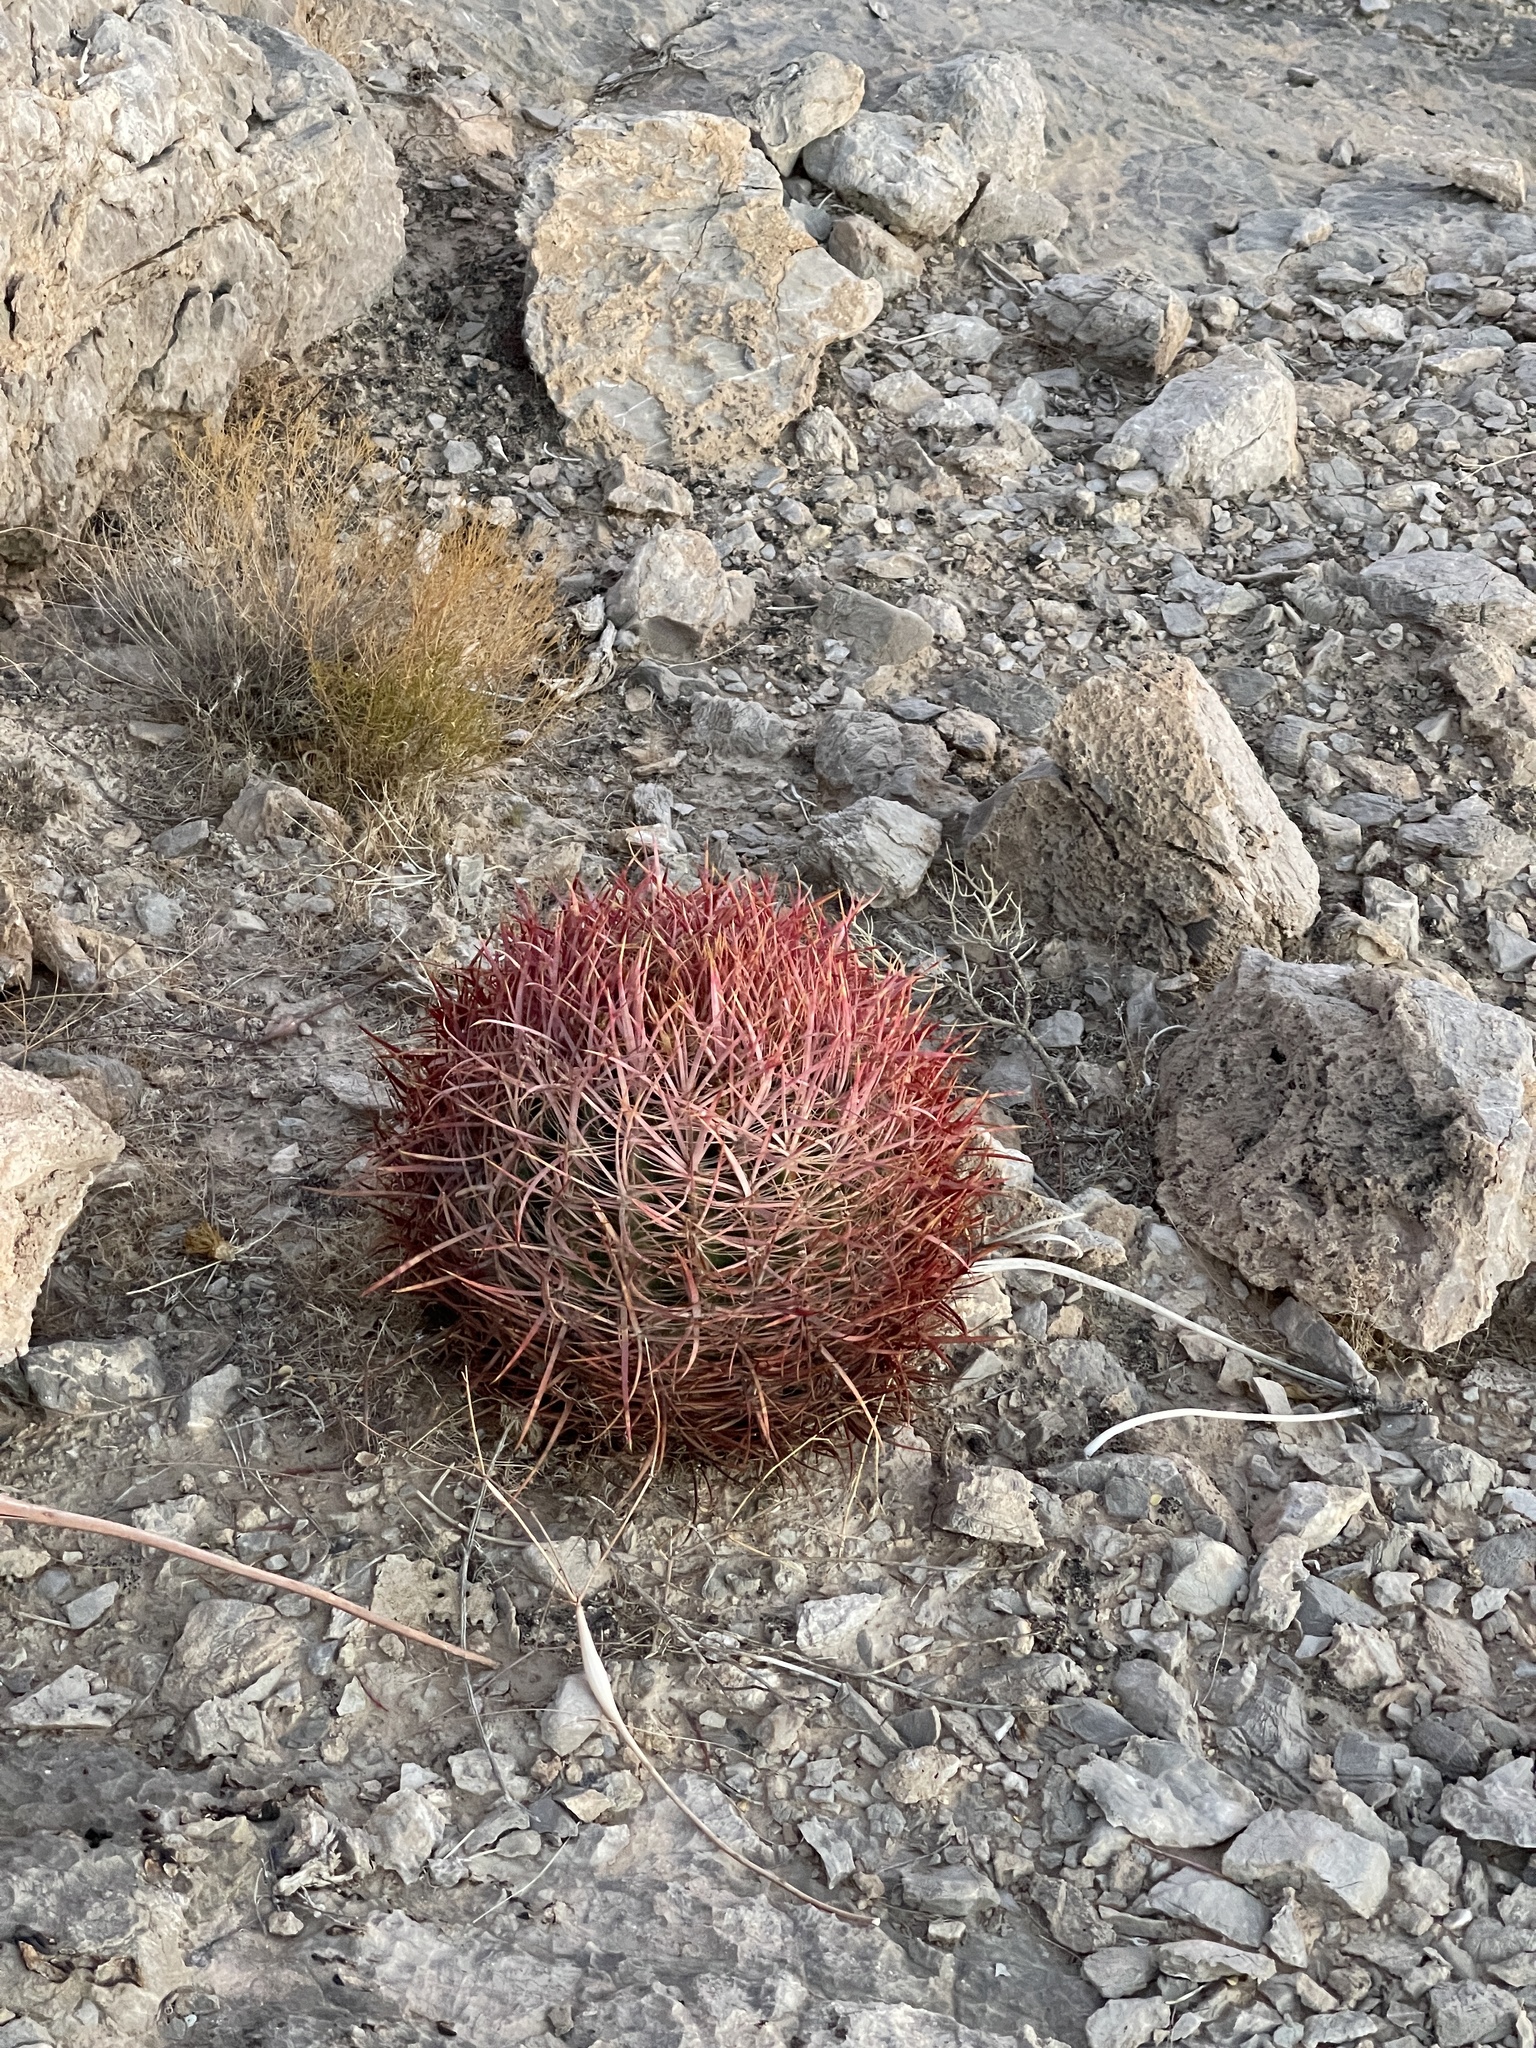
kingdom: Plantae
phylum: Tracheophyta
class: Magnoliopsida
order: Caryophyllales
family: Cactaceae
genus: Ferocactus
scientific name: Ferocactus cylindraceus
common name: California barrel cactus
